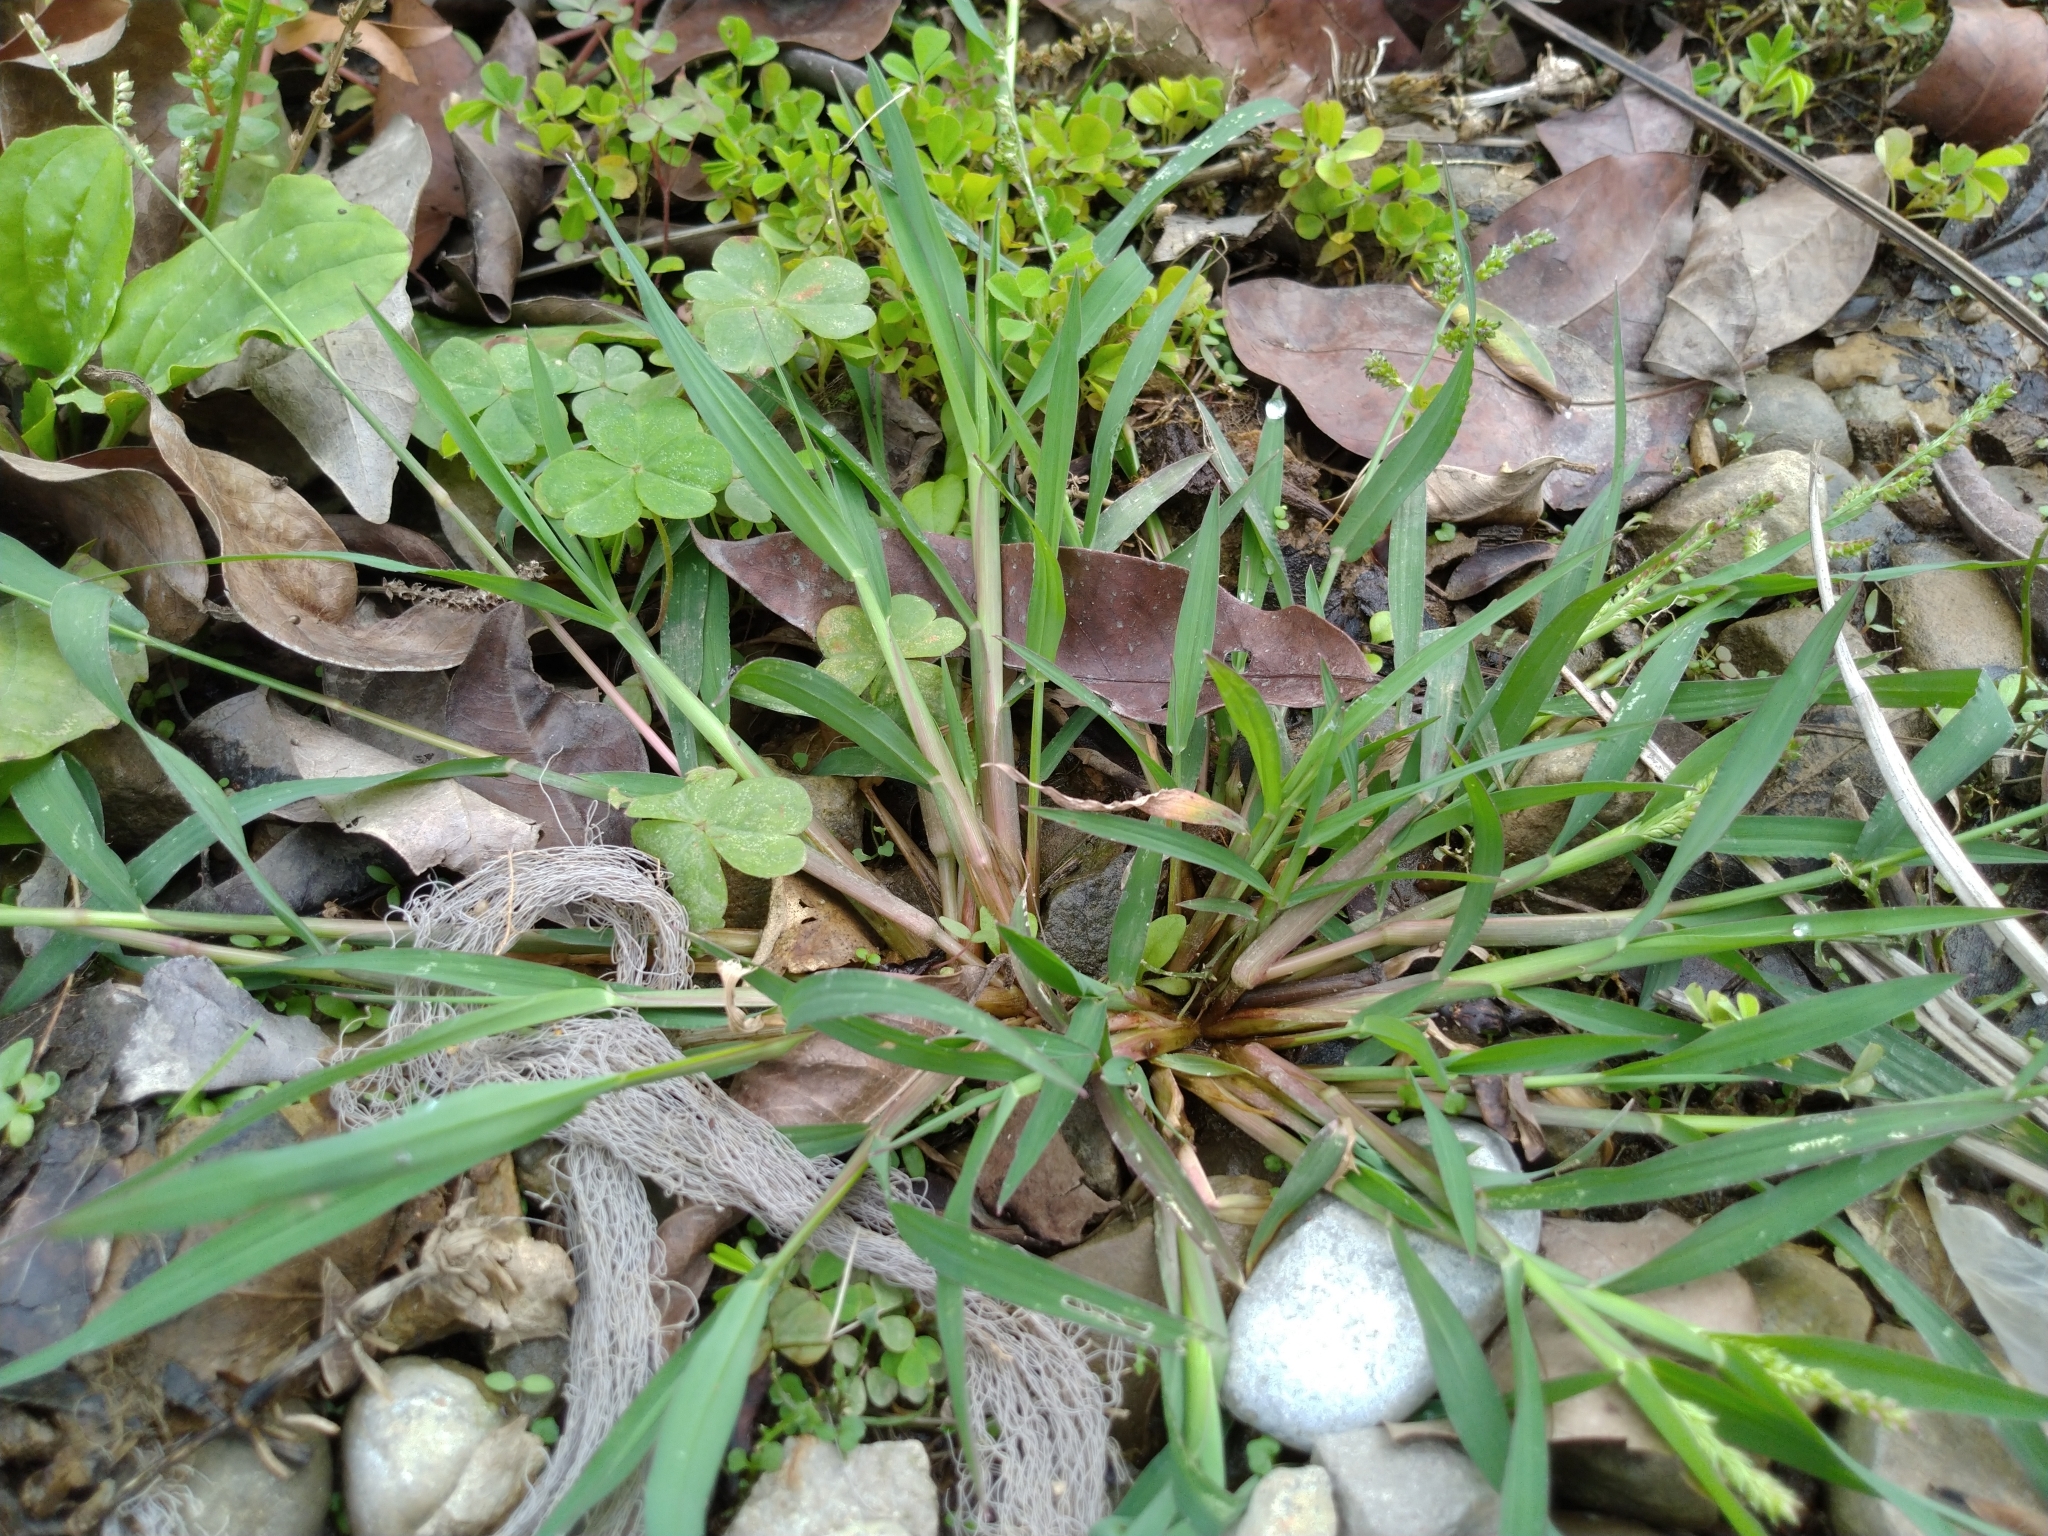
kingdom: Plantae
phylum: Tracheophyta
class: Liliopsida
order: Poales
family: Poaceae
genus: Echinochloa
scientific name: Echinochloa colonum
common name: Jungle rice
